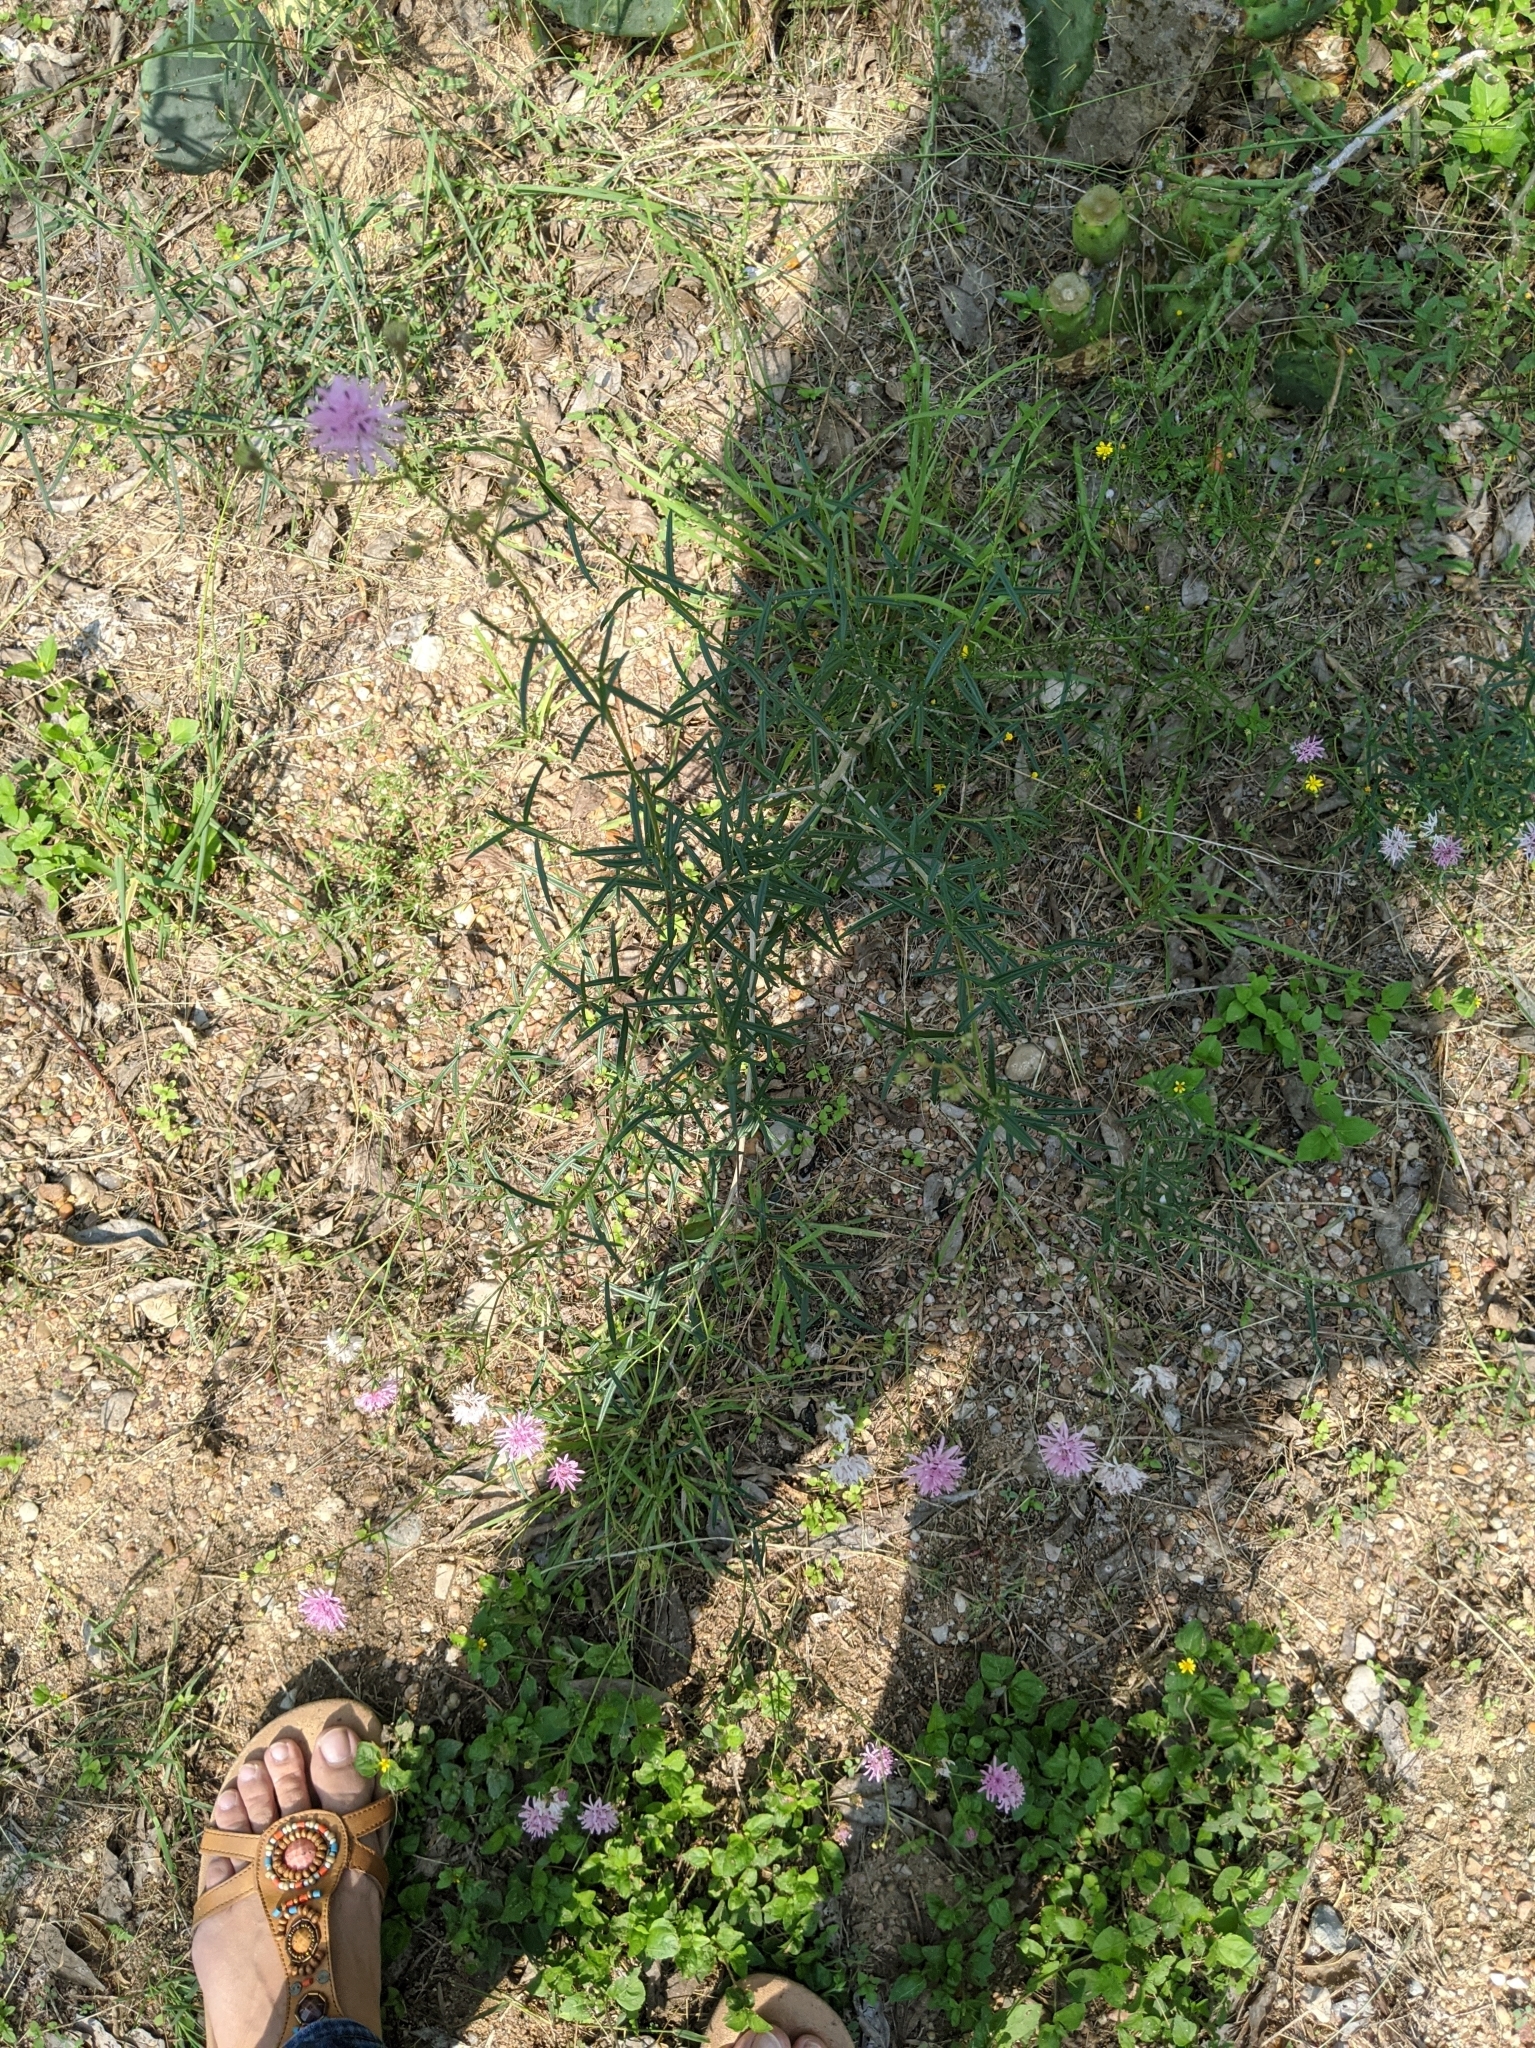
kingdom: Plantae
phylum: Tracheophyta
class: Magnoliopsida
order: Asterales
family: Asteraceae
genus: Palafoxia
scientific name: Palafoxia callosa
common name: Small palafox
